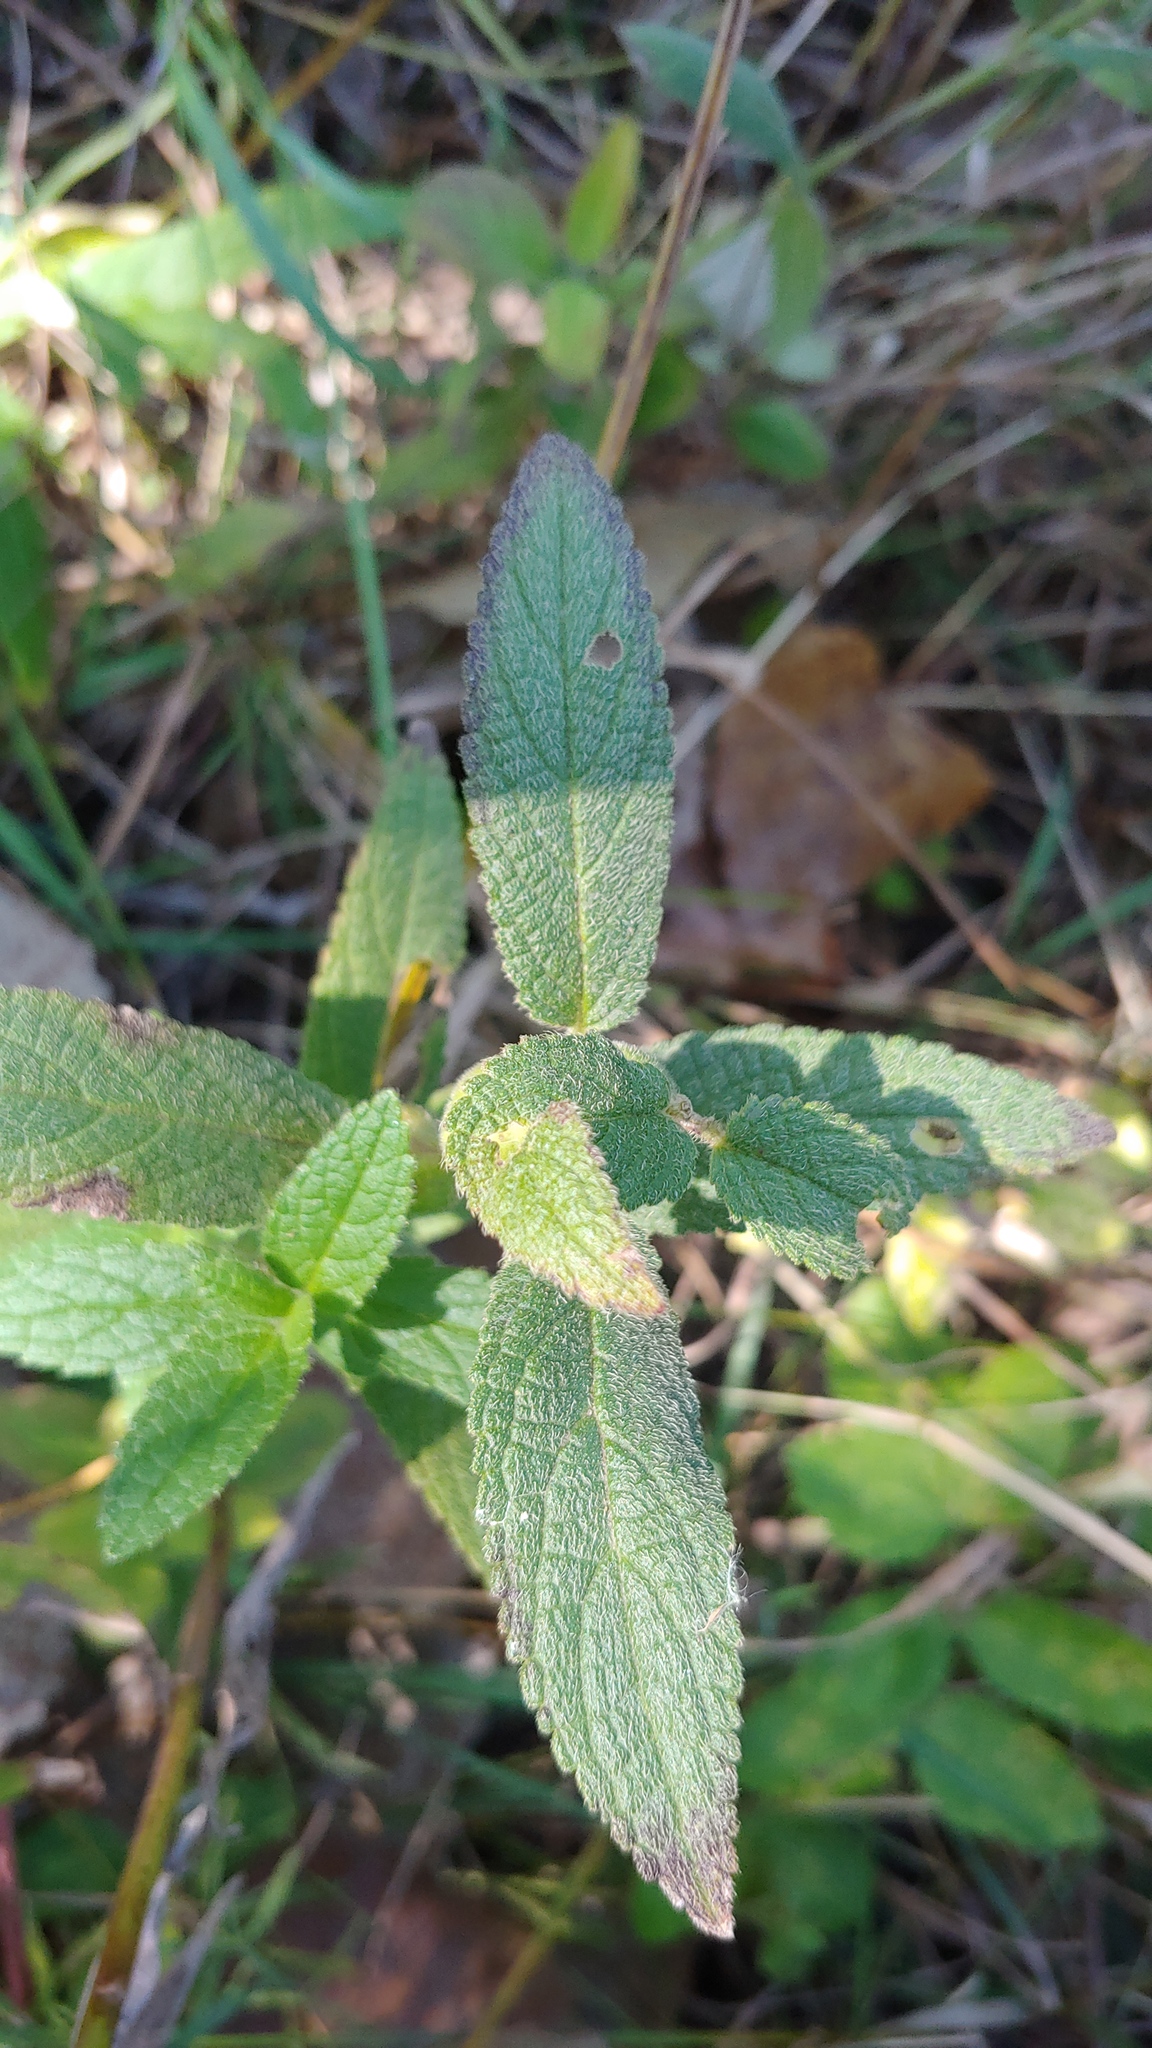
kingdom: Plantae
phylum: Tracheophyta
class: Magnoliopsida
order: Lamiales
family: Lamiaceae
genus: Stachys
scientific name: Stachys pilosa
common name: Hairy hedge-nettle
